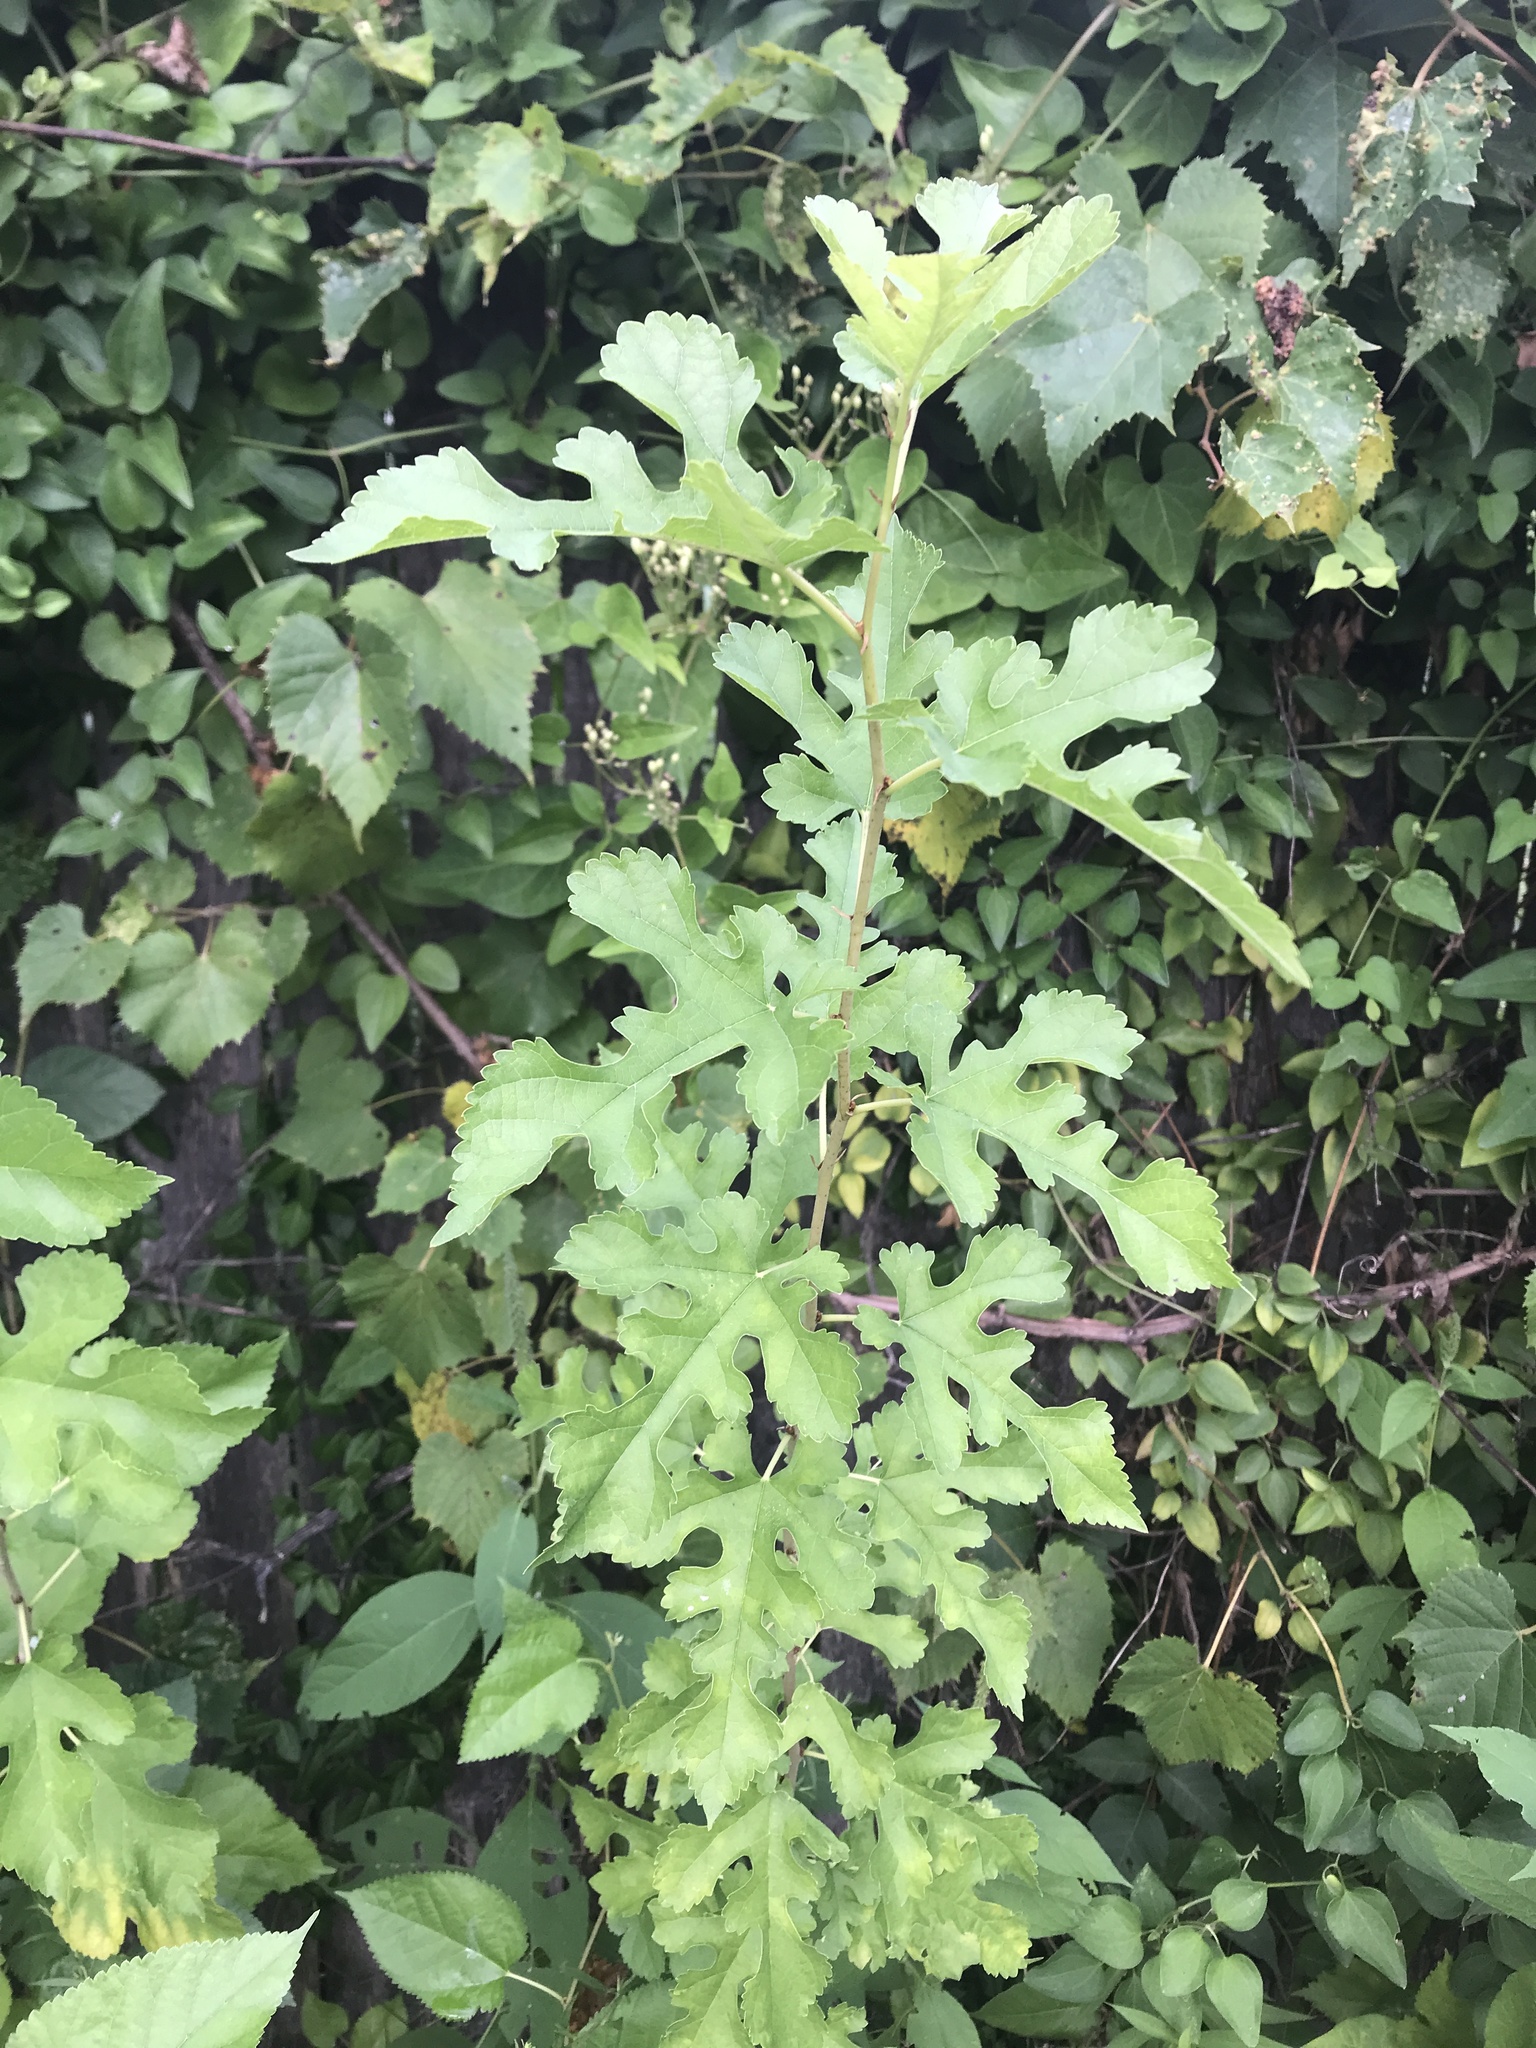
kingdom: Plantae
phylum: Tracheophyta
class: Magnoliopsida
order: Rosales
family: Moraceae
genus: Morus
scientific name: Morus alba
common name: White mulberry
